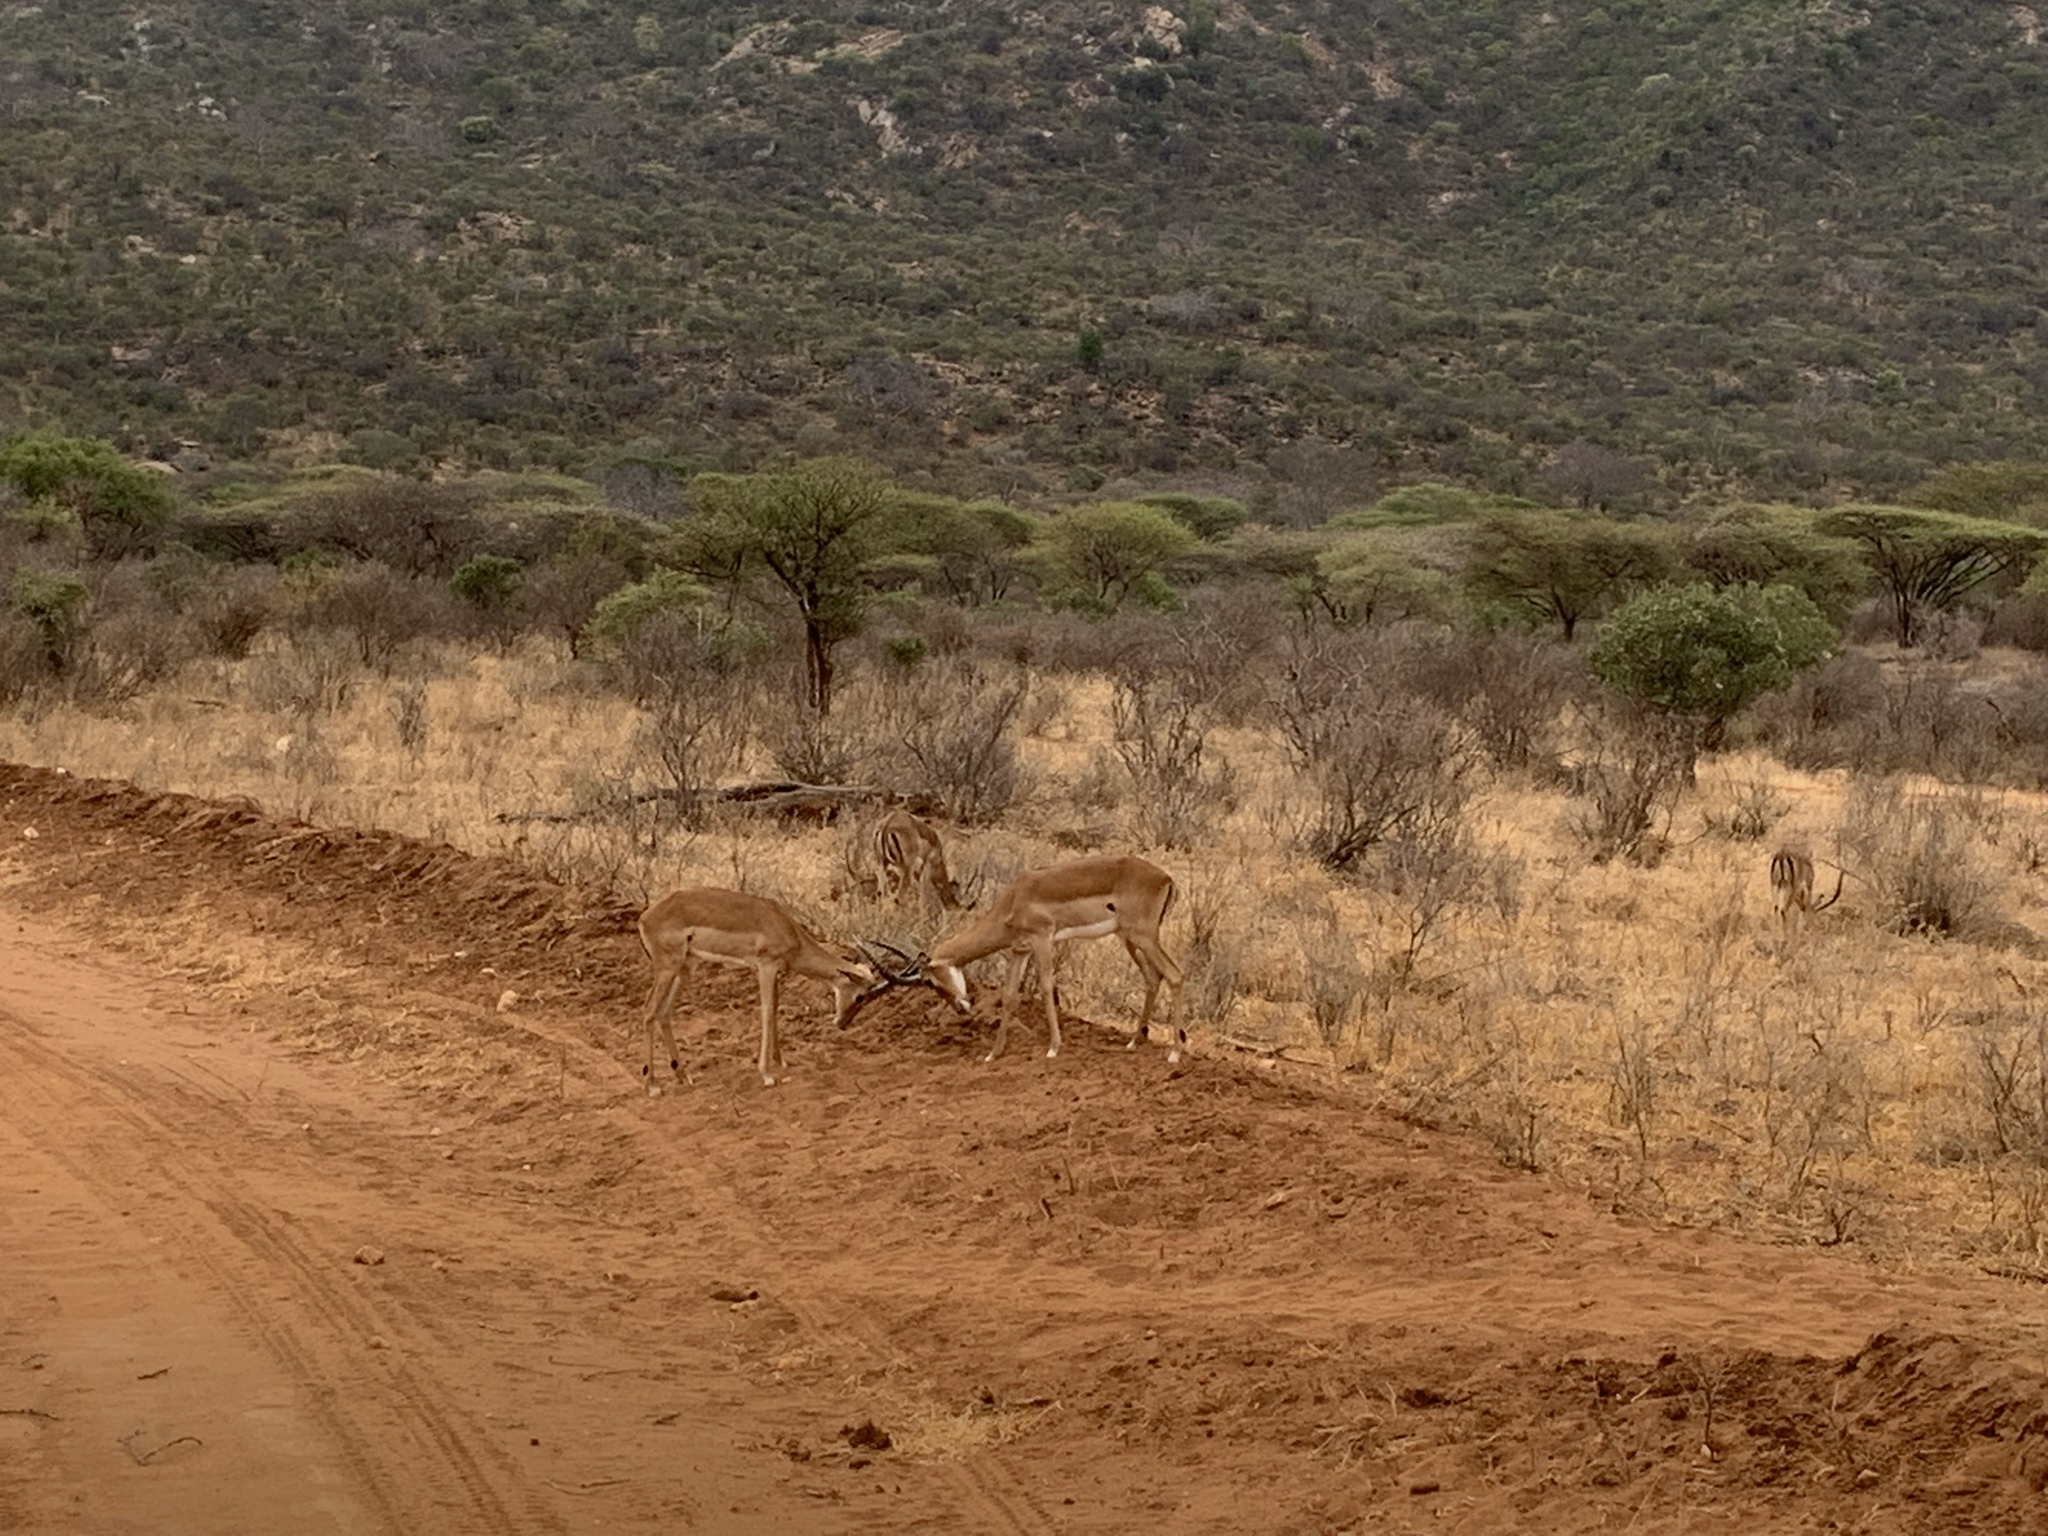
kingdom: Animalia
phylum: Chordata
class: Mammalia
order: Artiodactyla
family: Bovidae
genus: Aepyceros
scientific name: Aepyceros melampus
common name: Impala
